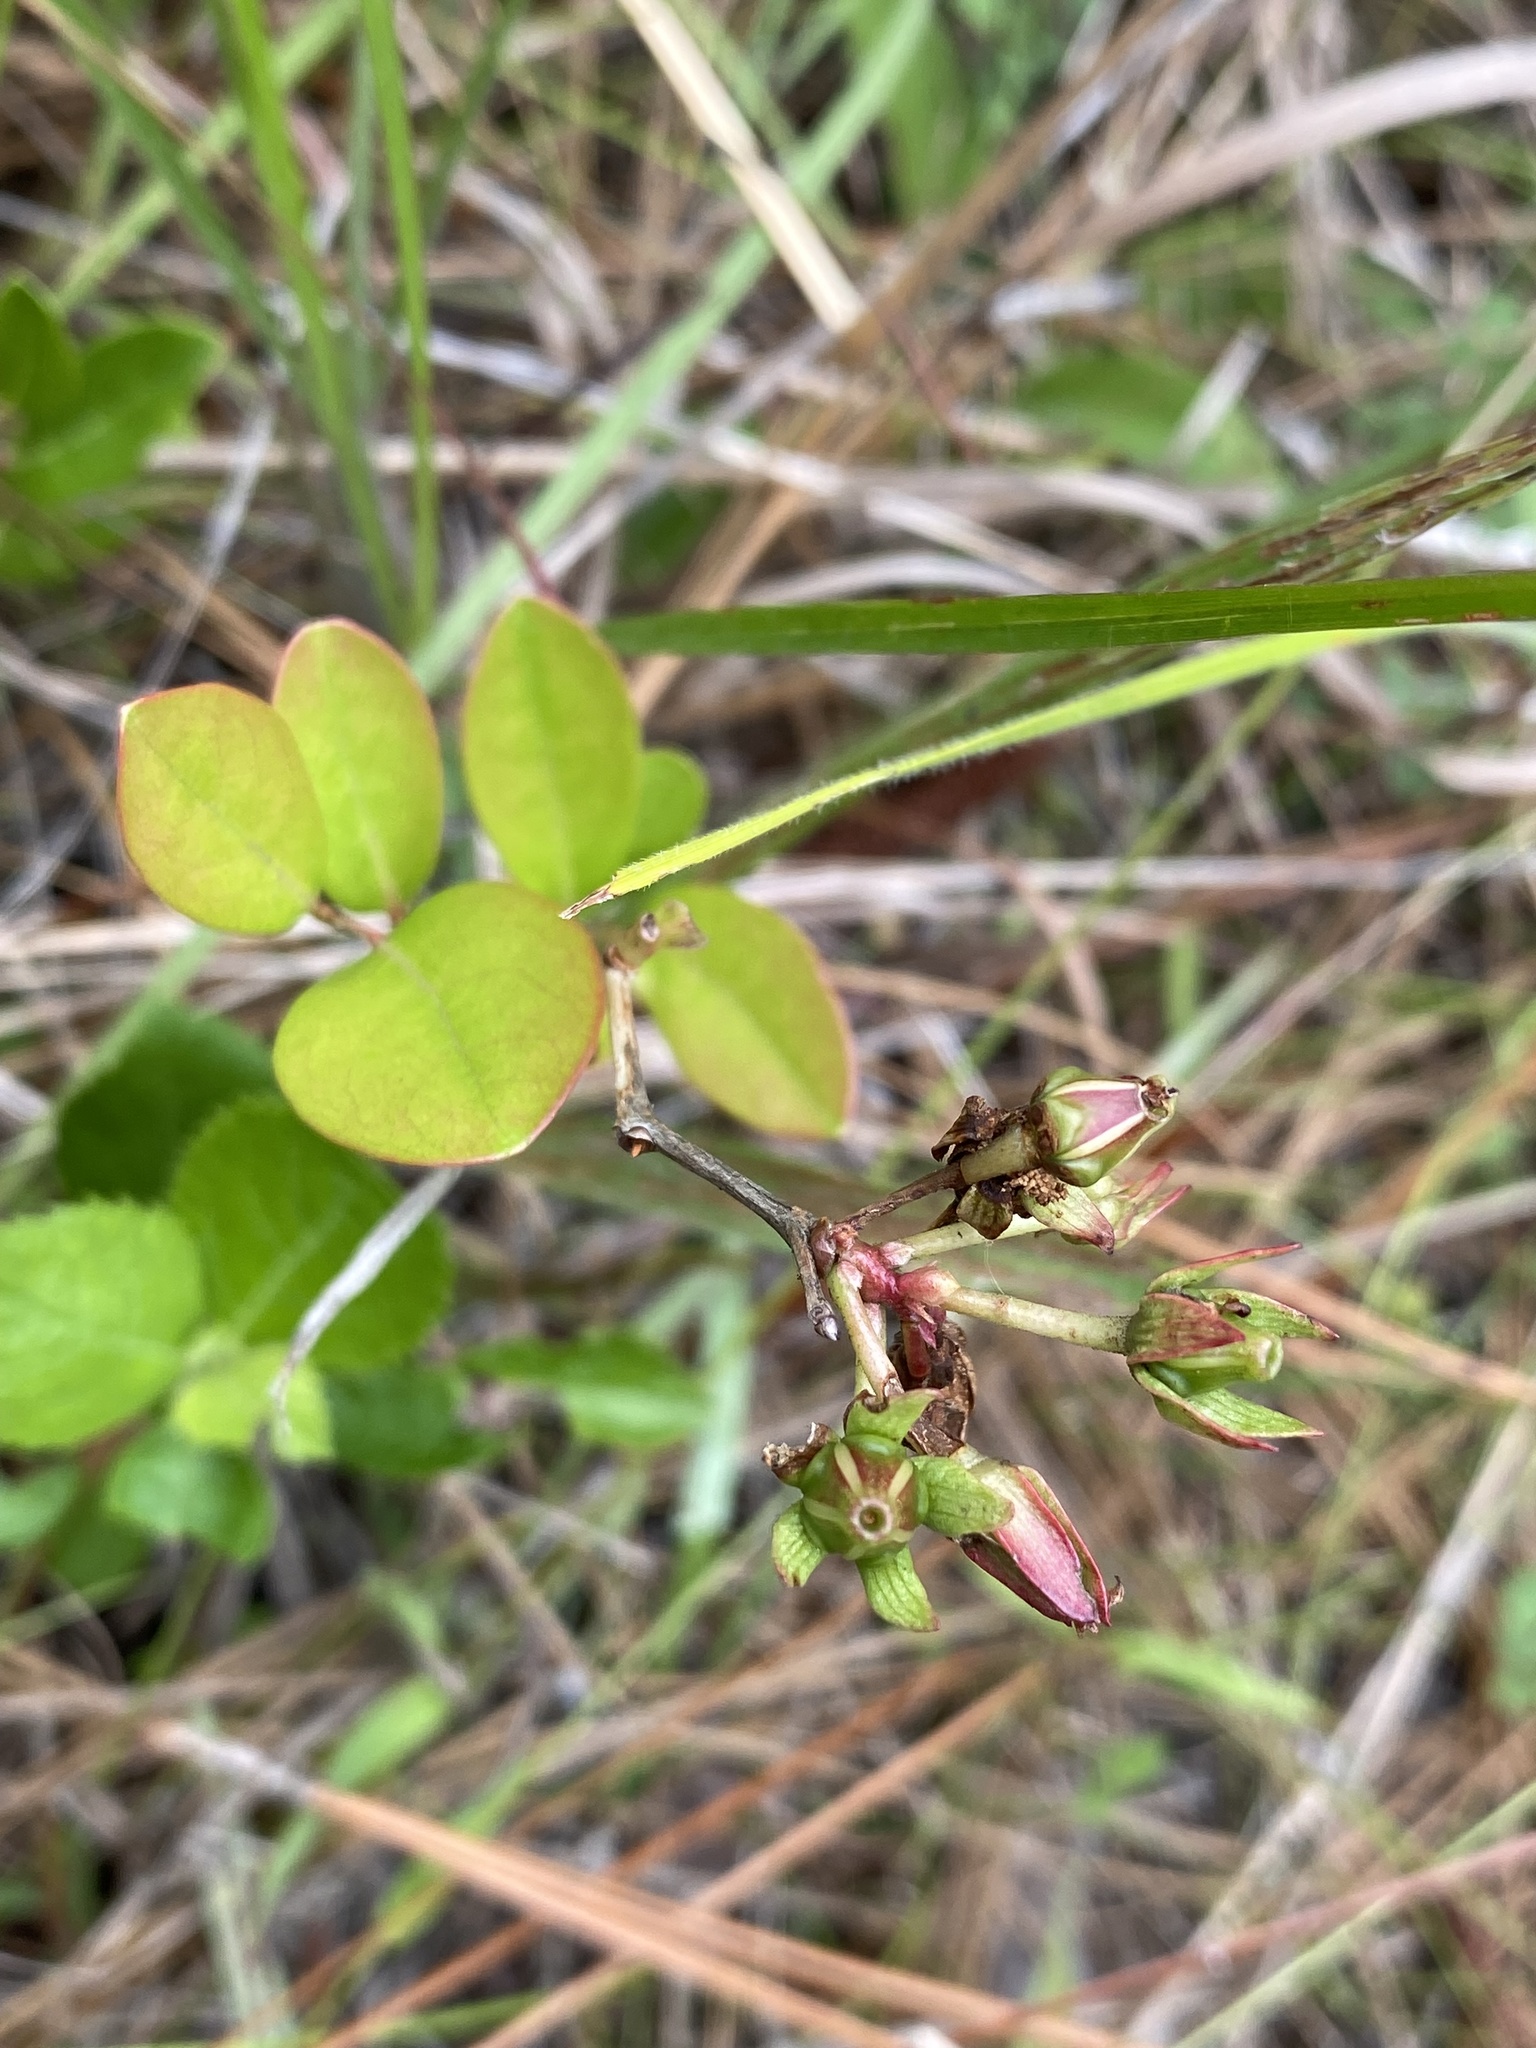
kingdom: Plantae
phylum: Tracheophyta
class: Magnoliopsida
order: Ericales
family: Ericaceae
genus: Lyonia
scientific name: Lyonia mariana
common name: Staggerbush
